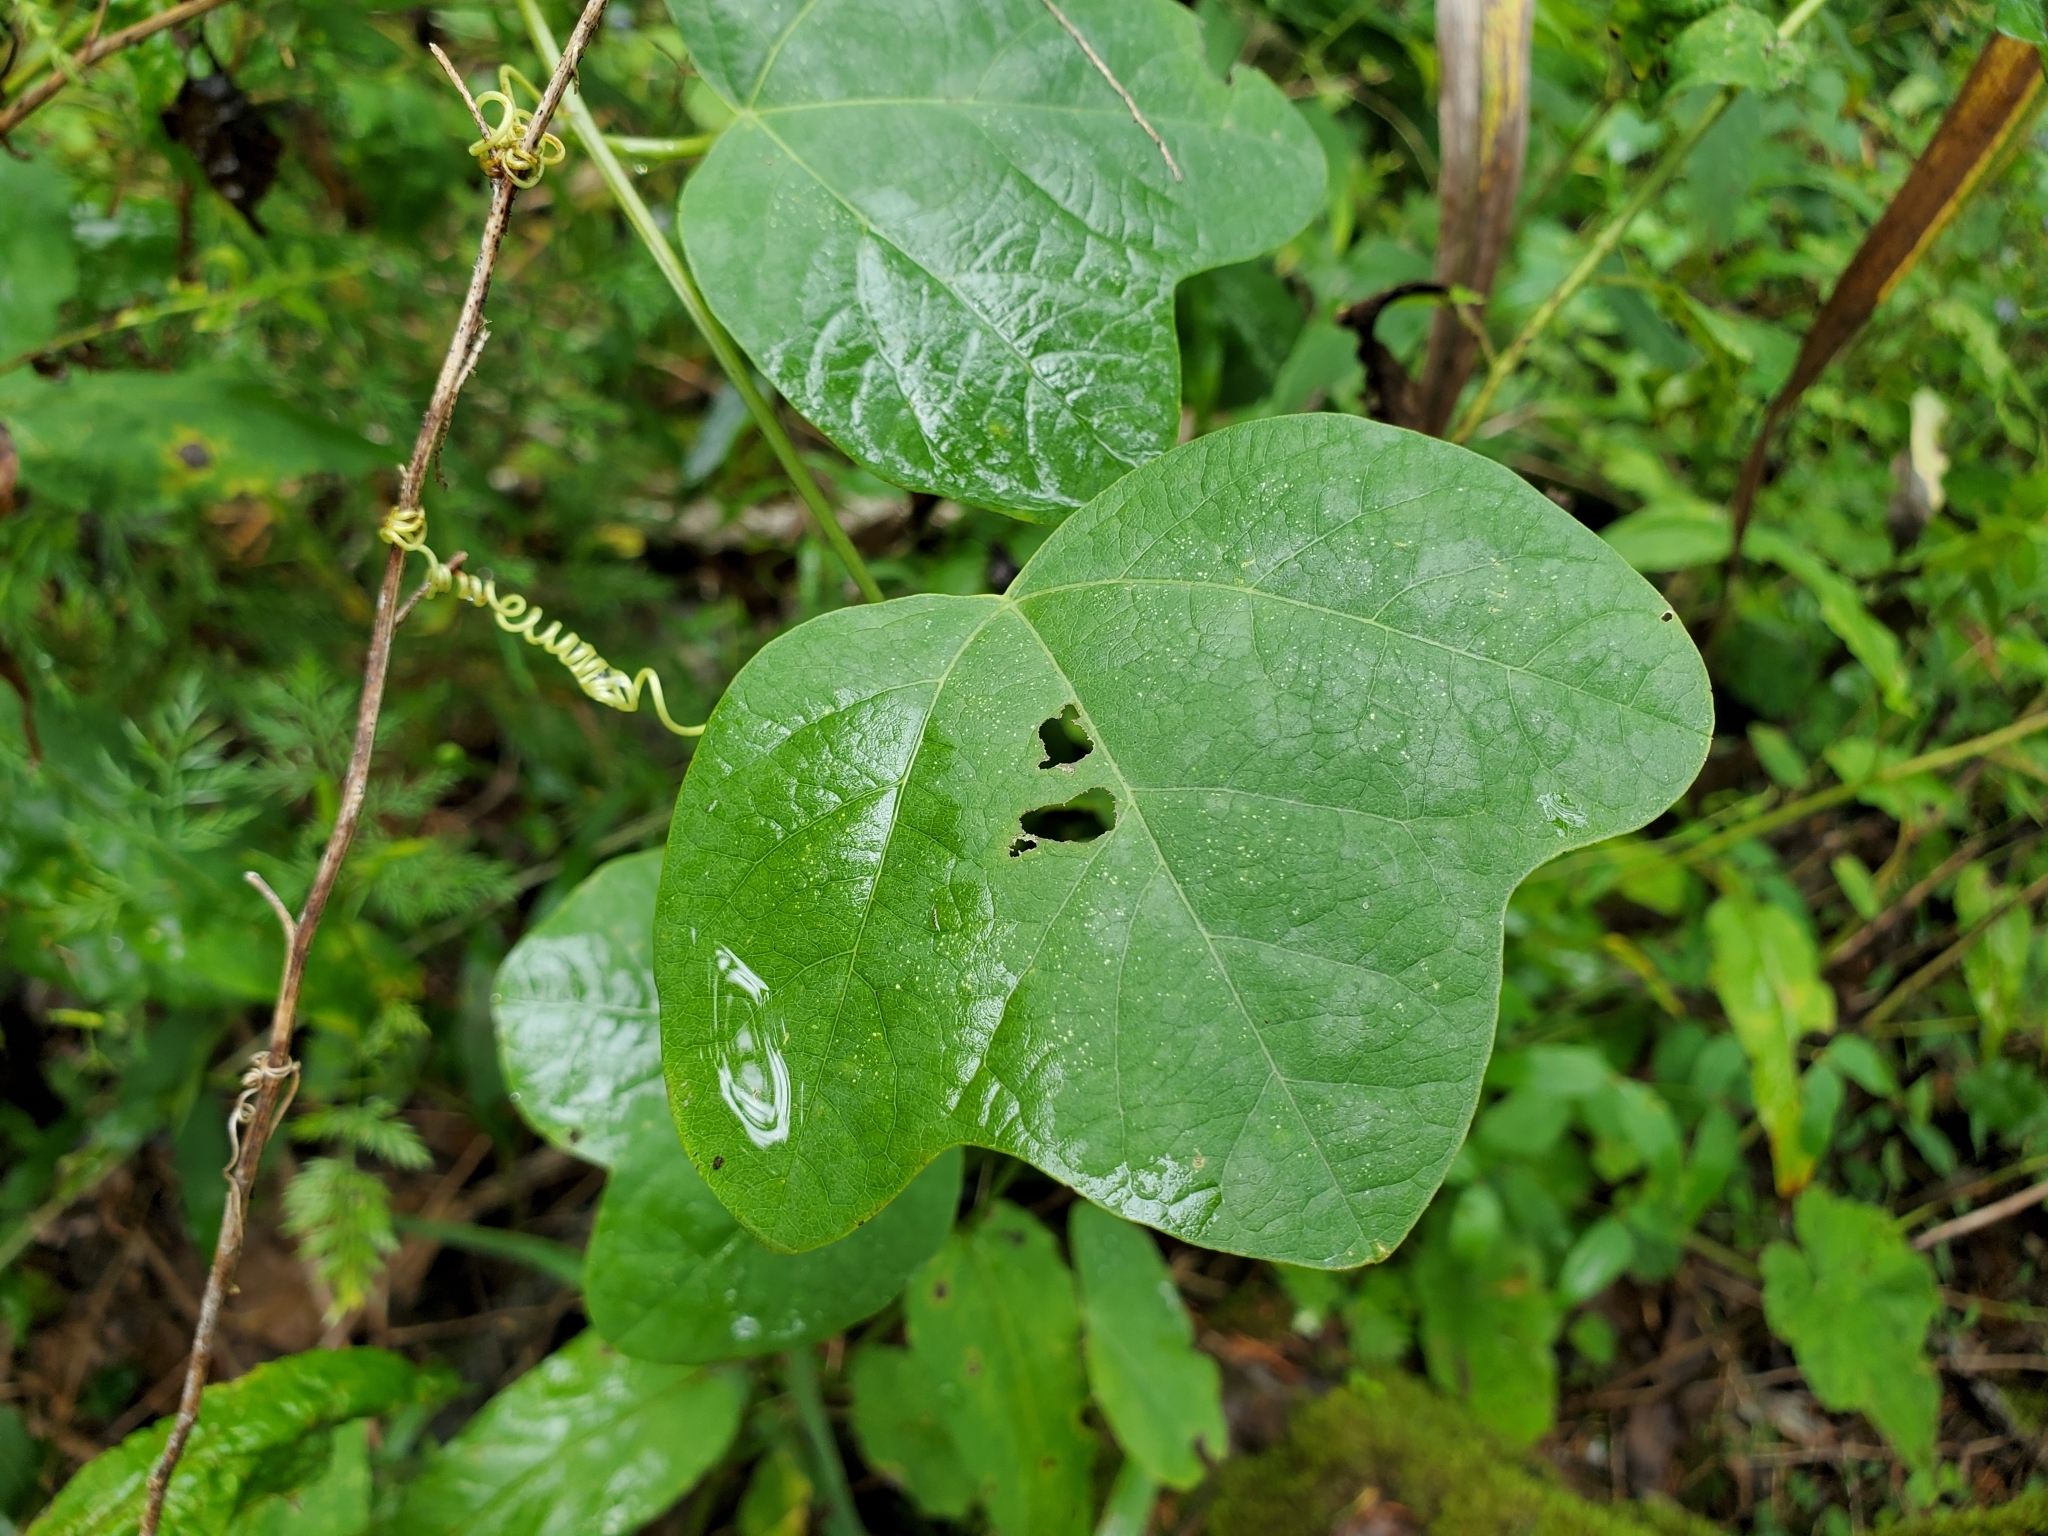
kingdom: Plantae
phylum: Tracheophyta
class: Magnoliopsida
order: Malpighiales
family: Passifloraceae
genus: Passiflora
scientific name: Passiflora lutea
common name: Yellow passionflower
